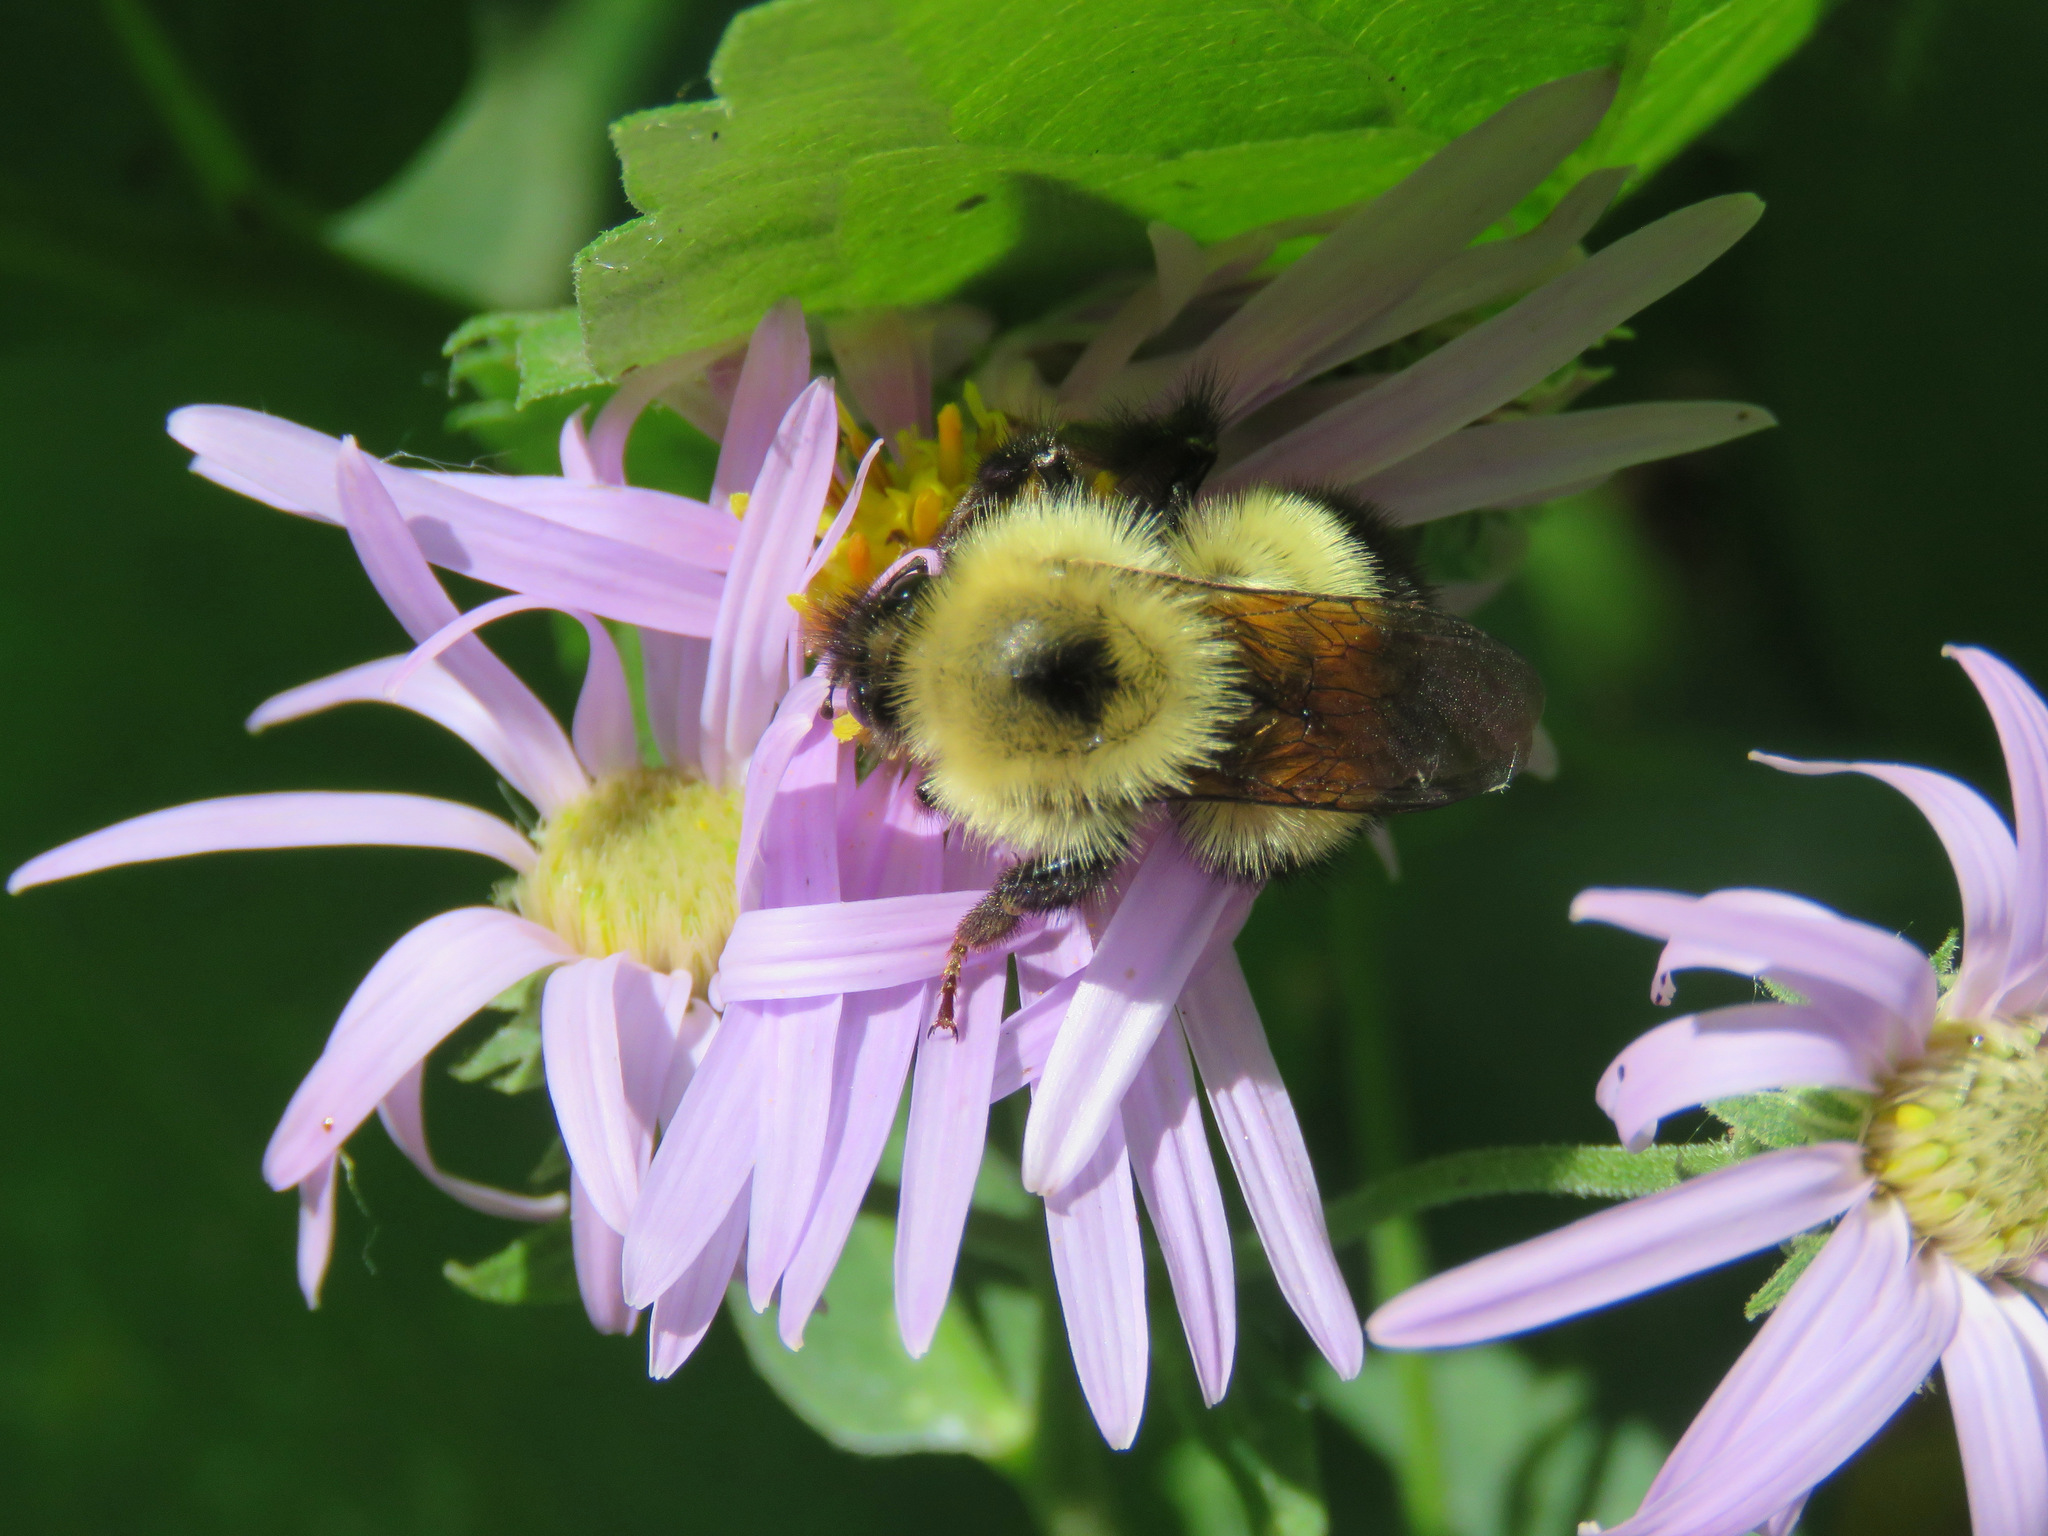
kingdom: Animalia
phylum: Arthropoda
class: Insecta
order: Hymenoptera
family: Apidae
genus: Bombus
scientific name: Bombus vagans
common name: Half-black bumble bee
